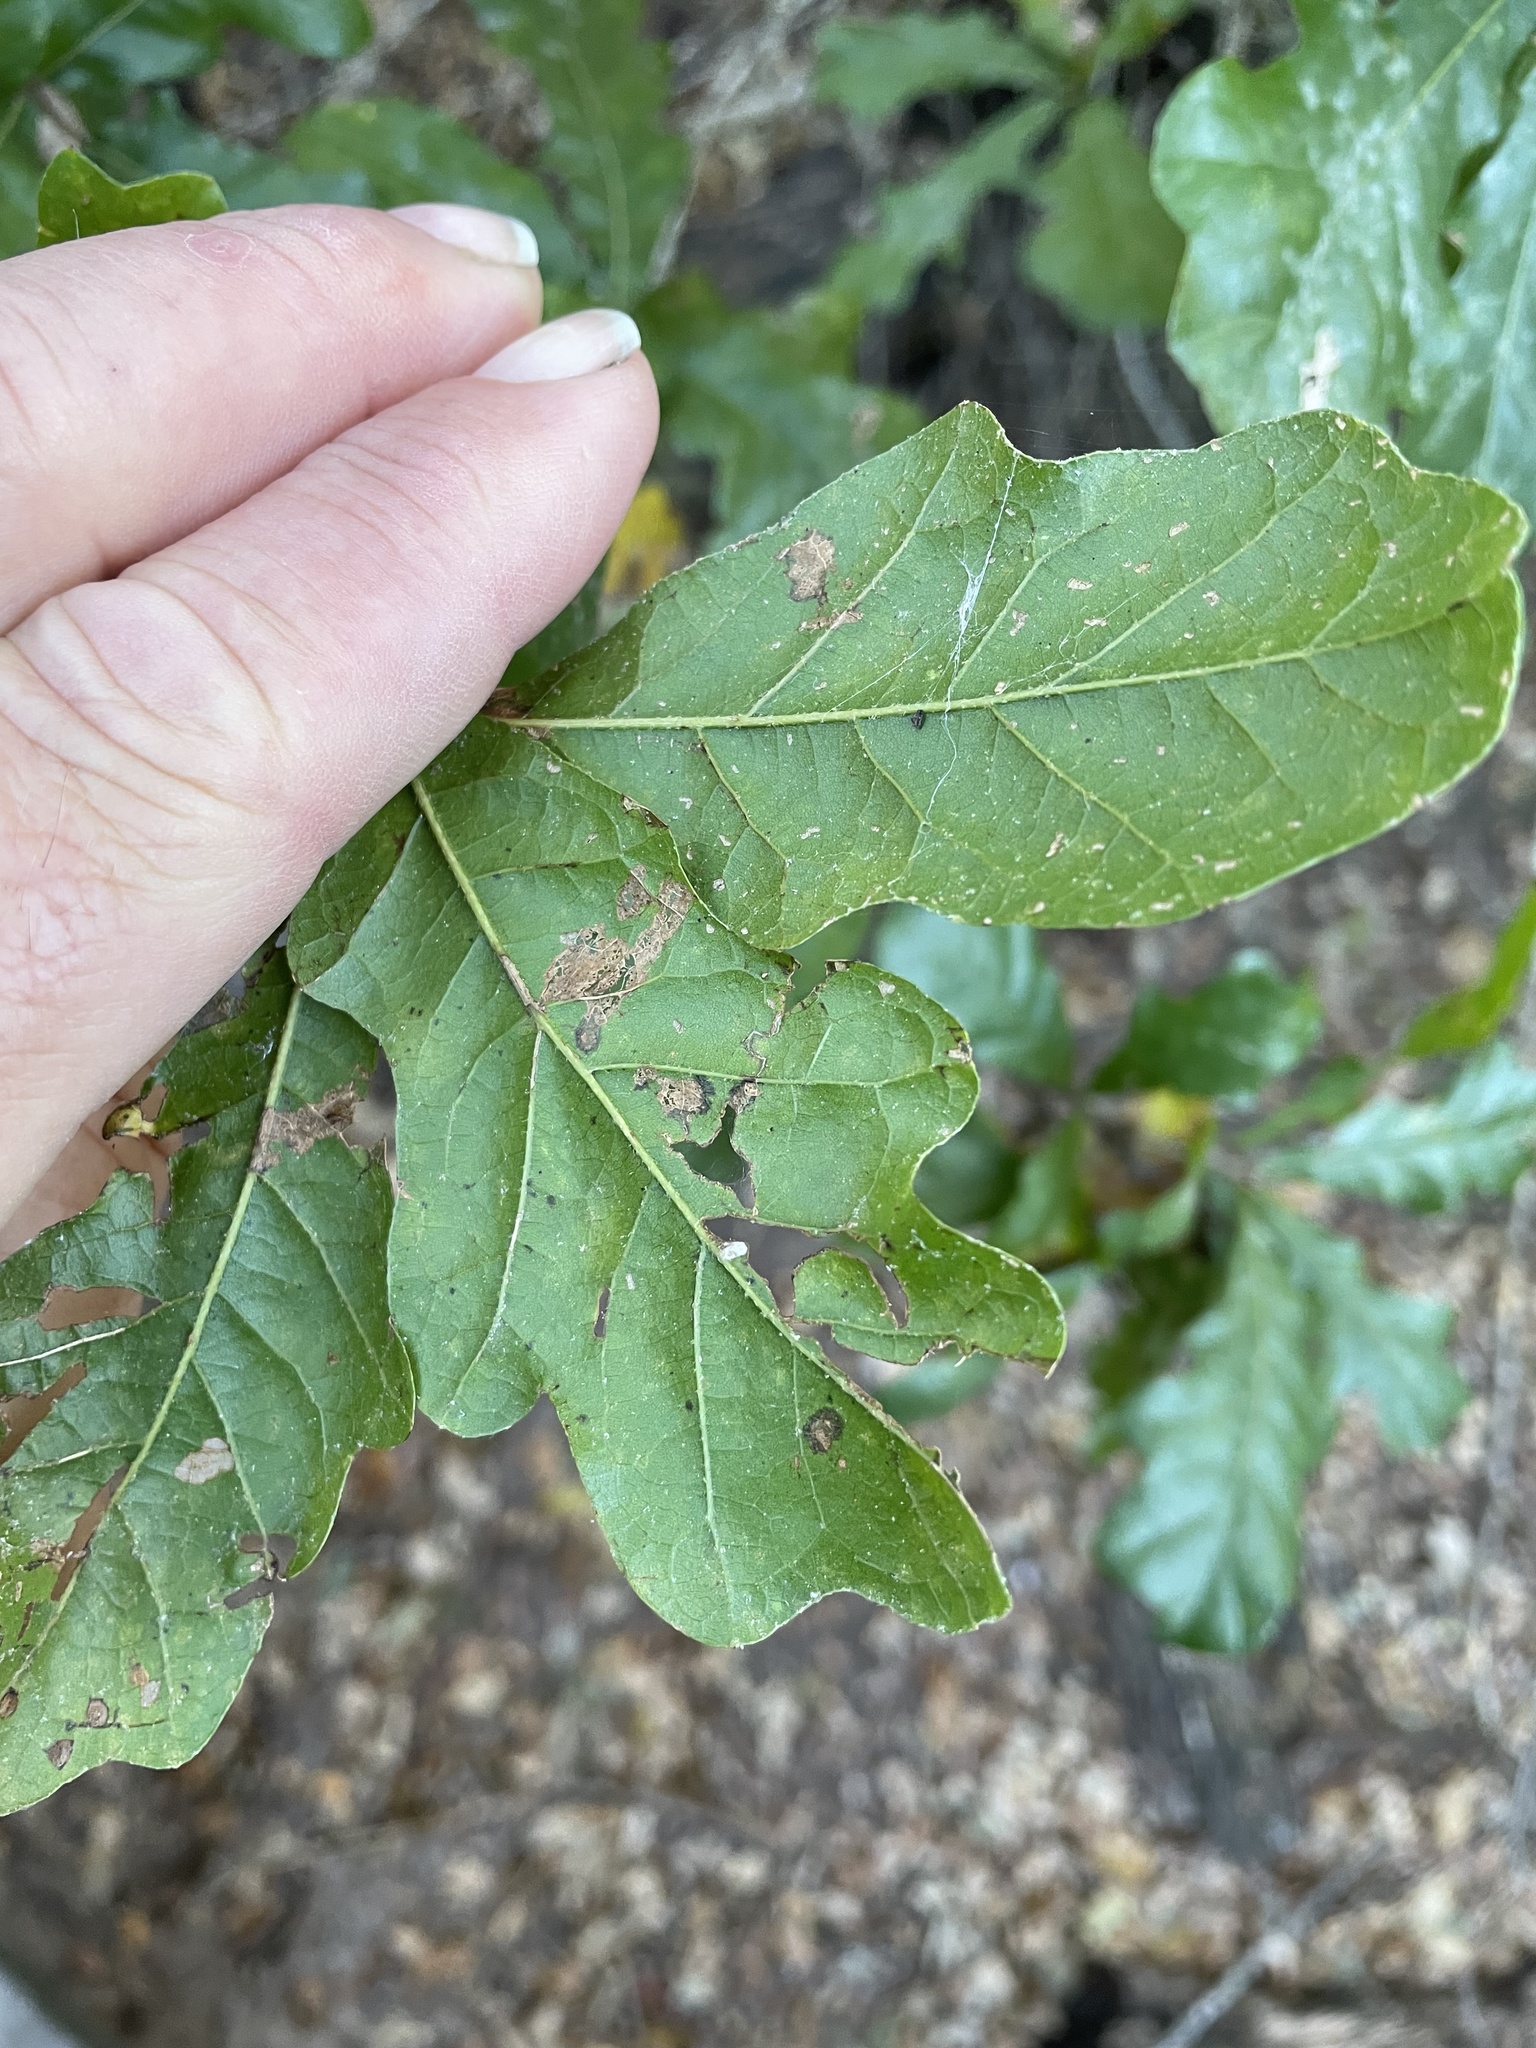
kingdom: Plantae
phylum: Tracheophyta
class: Magnoliopsida
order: Fagales
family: Fagaceae
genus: Quercus
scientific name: Quercus sinuata
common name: Durand oak
